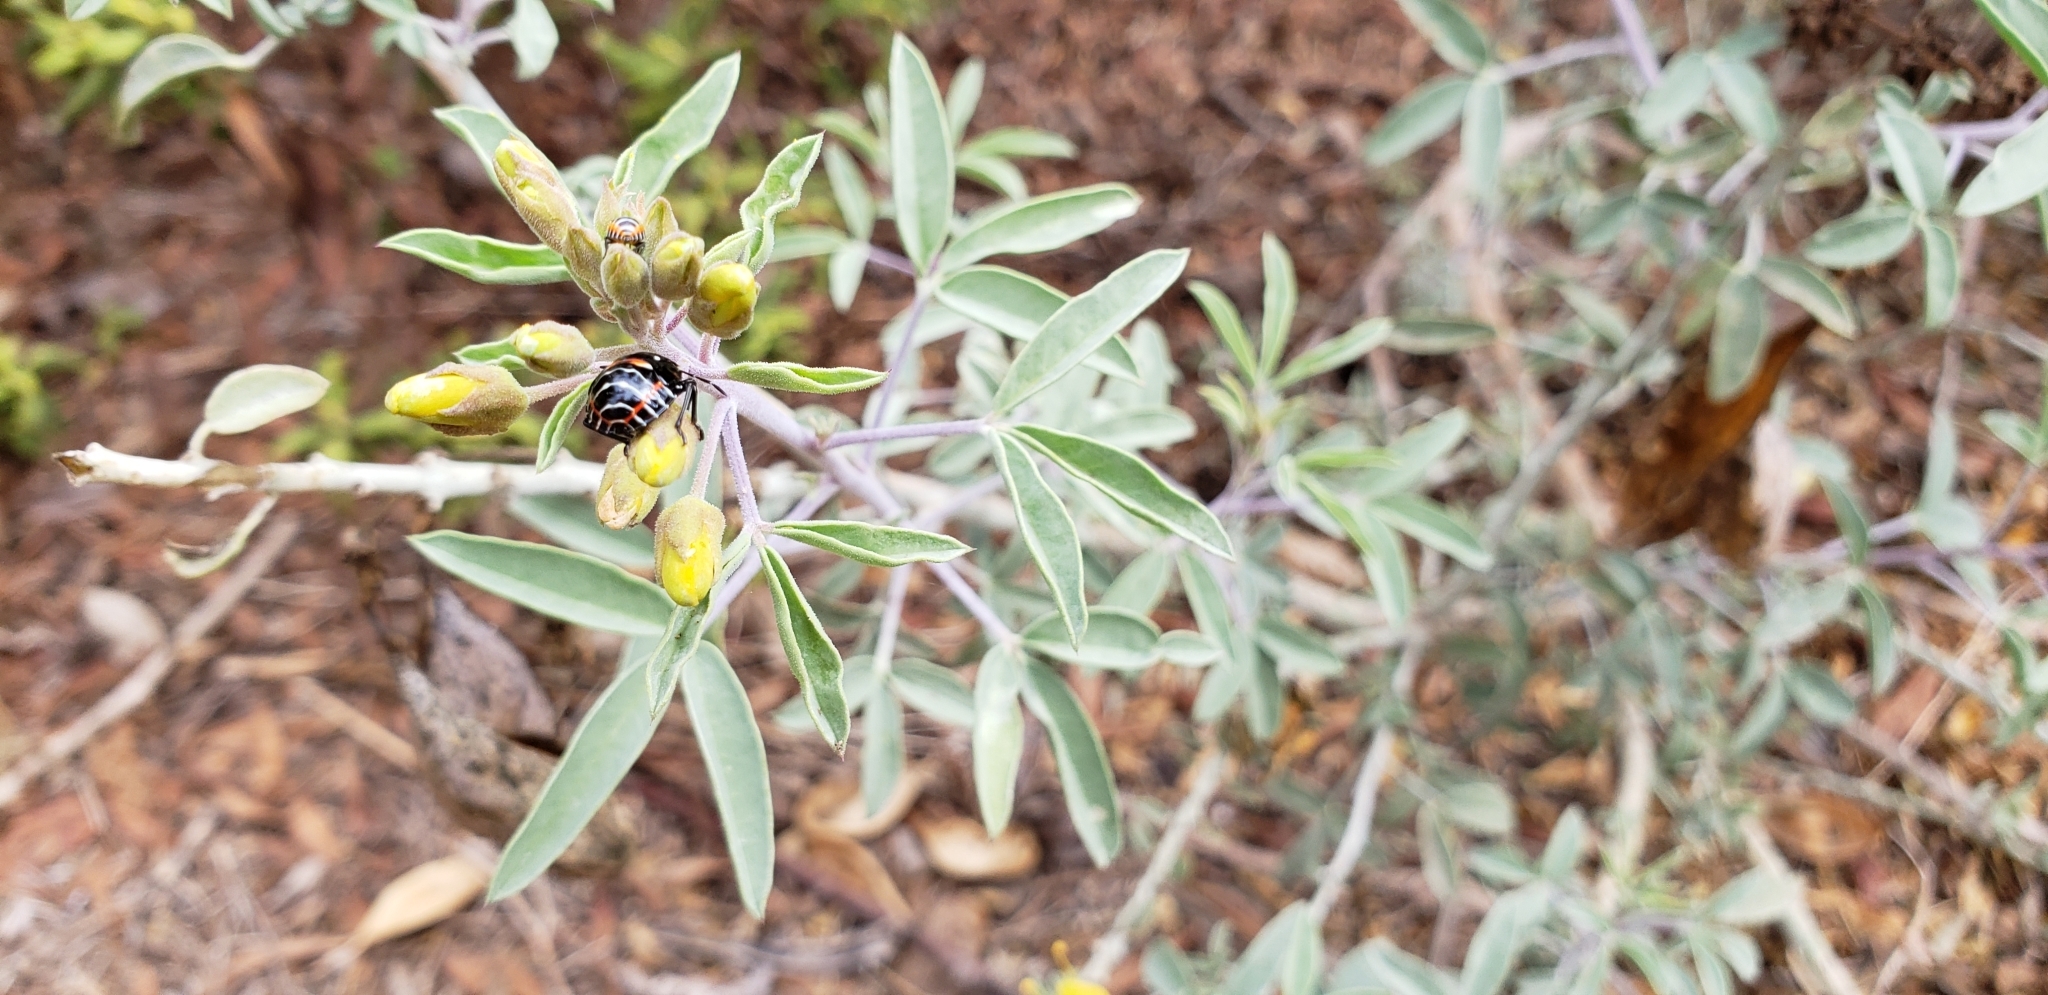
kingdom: Animalia
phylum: Arthropoda
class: Insecta
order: Hemiptera
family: Pentatomidae
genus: Murgantia
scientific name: Murgantia histrionica
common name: Harlequin bug
